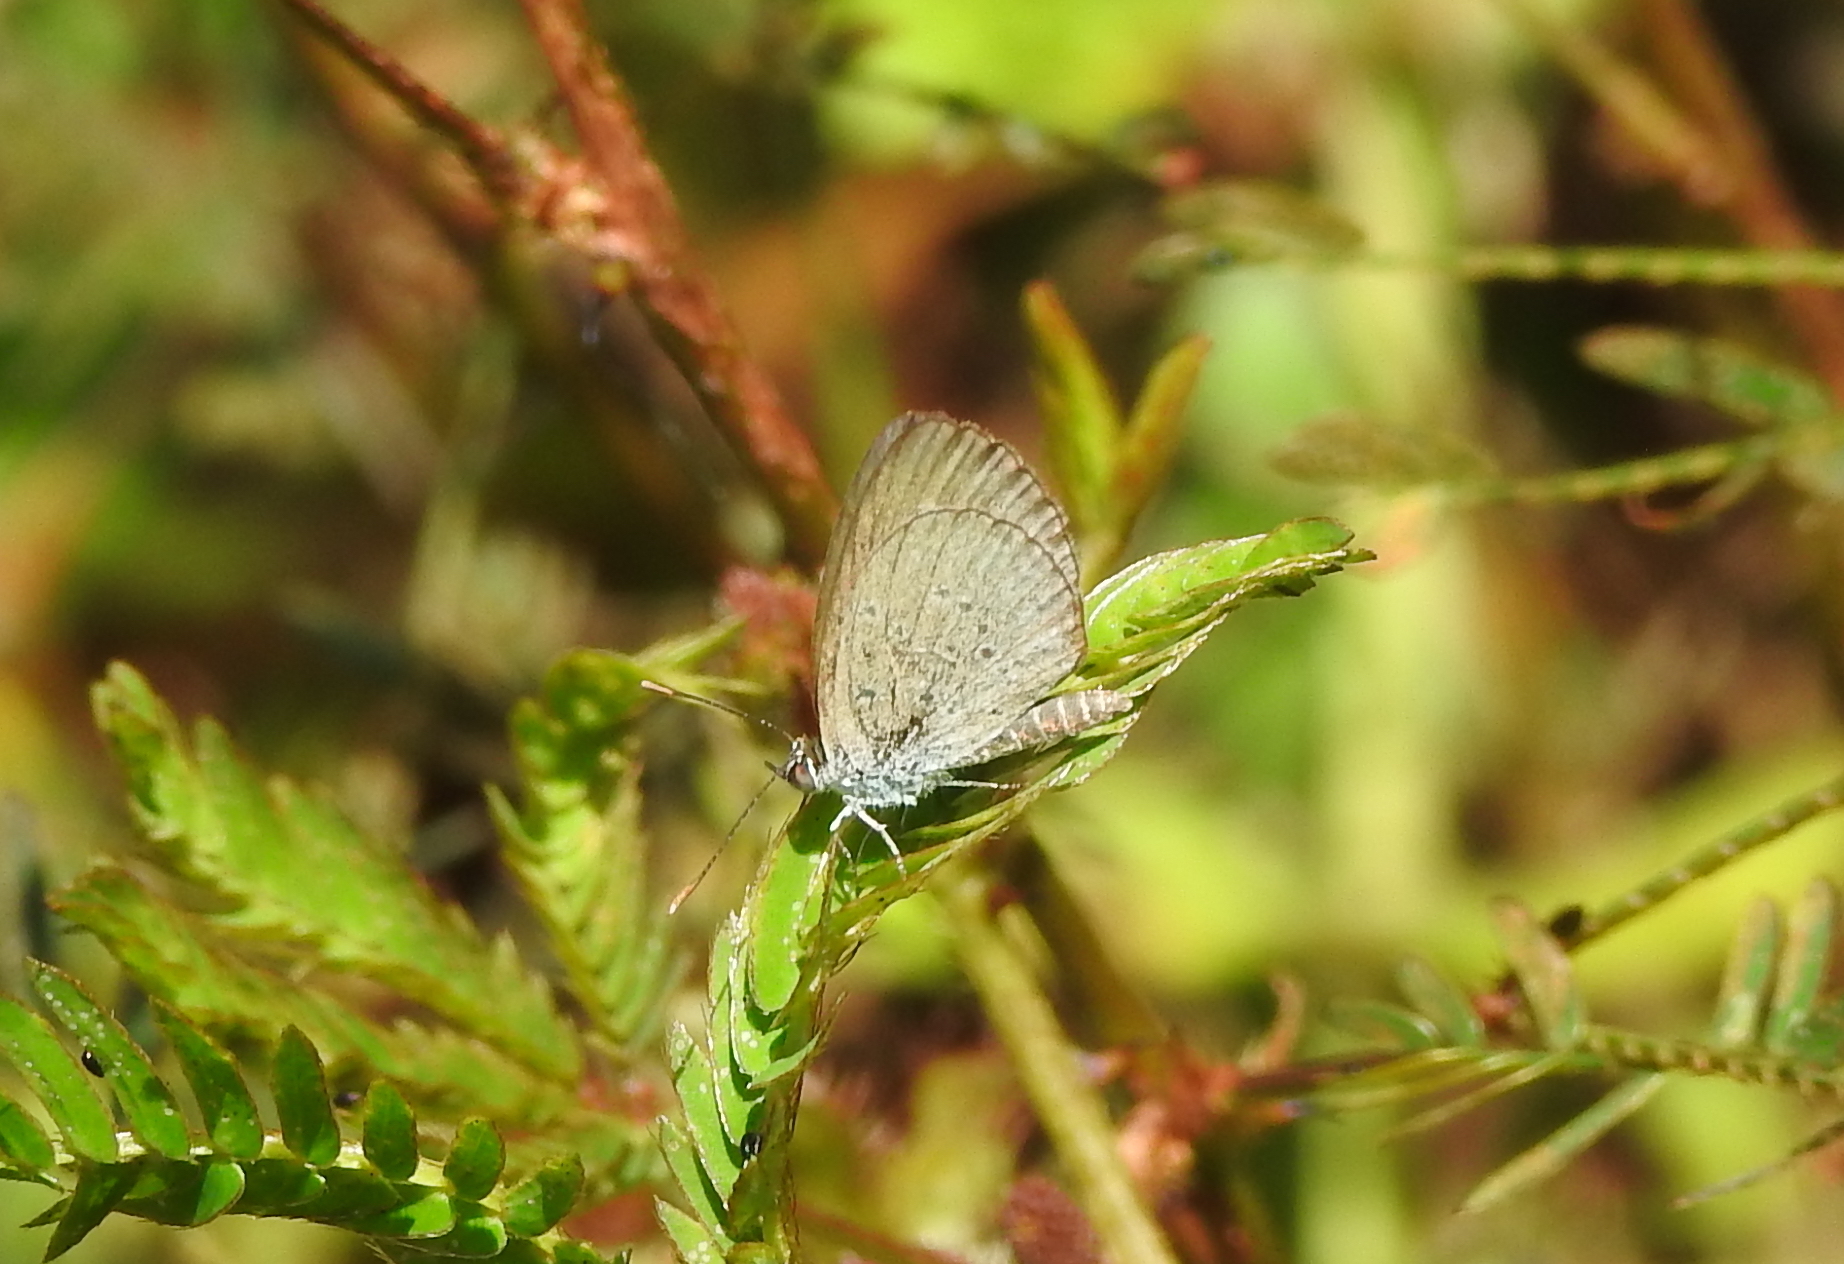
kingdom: Animalia
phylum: Arthropoda
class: Insecta
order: Lepidoptera
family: Lycaenidae
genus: Zizina
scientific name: Zizina otis
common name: Lesser grass blue
